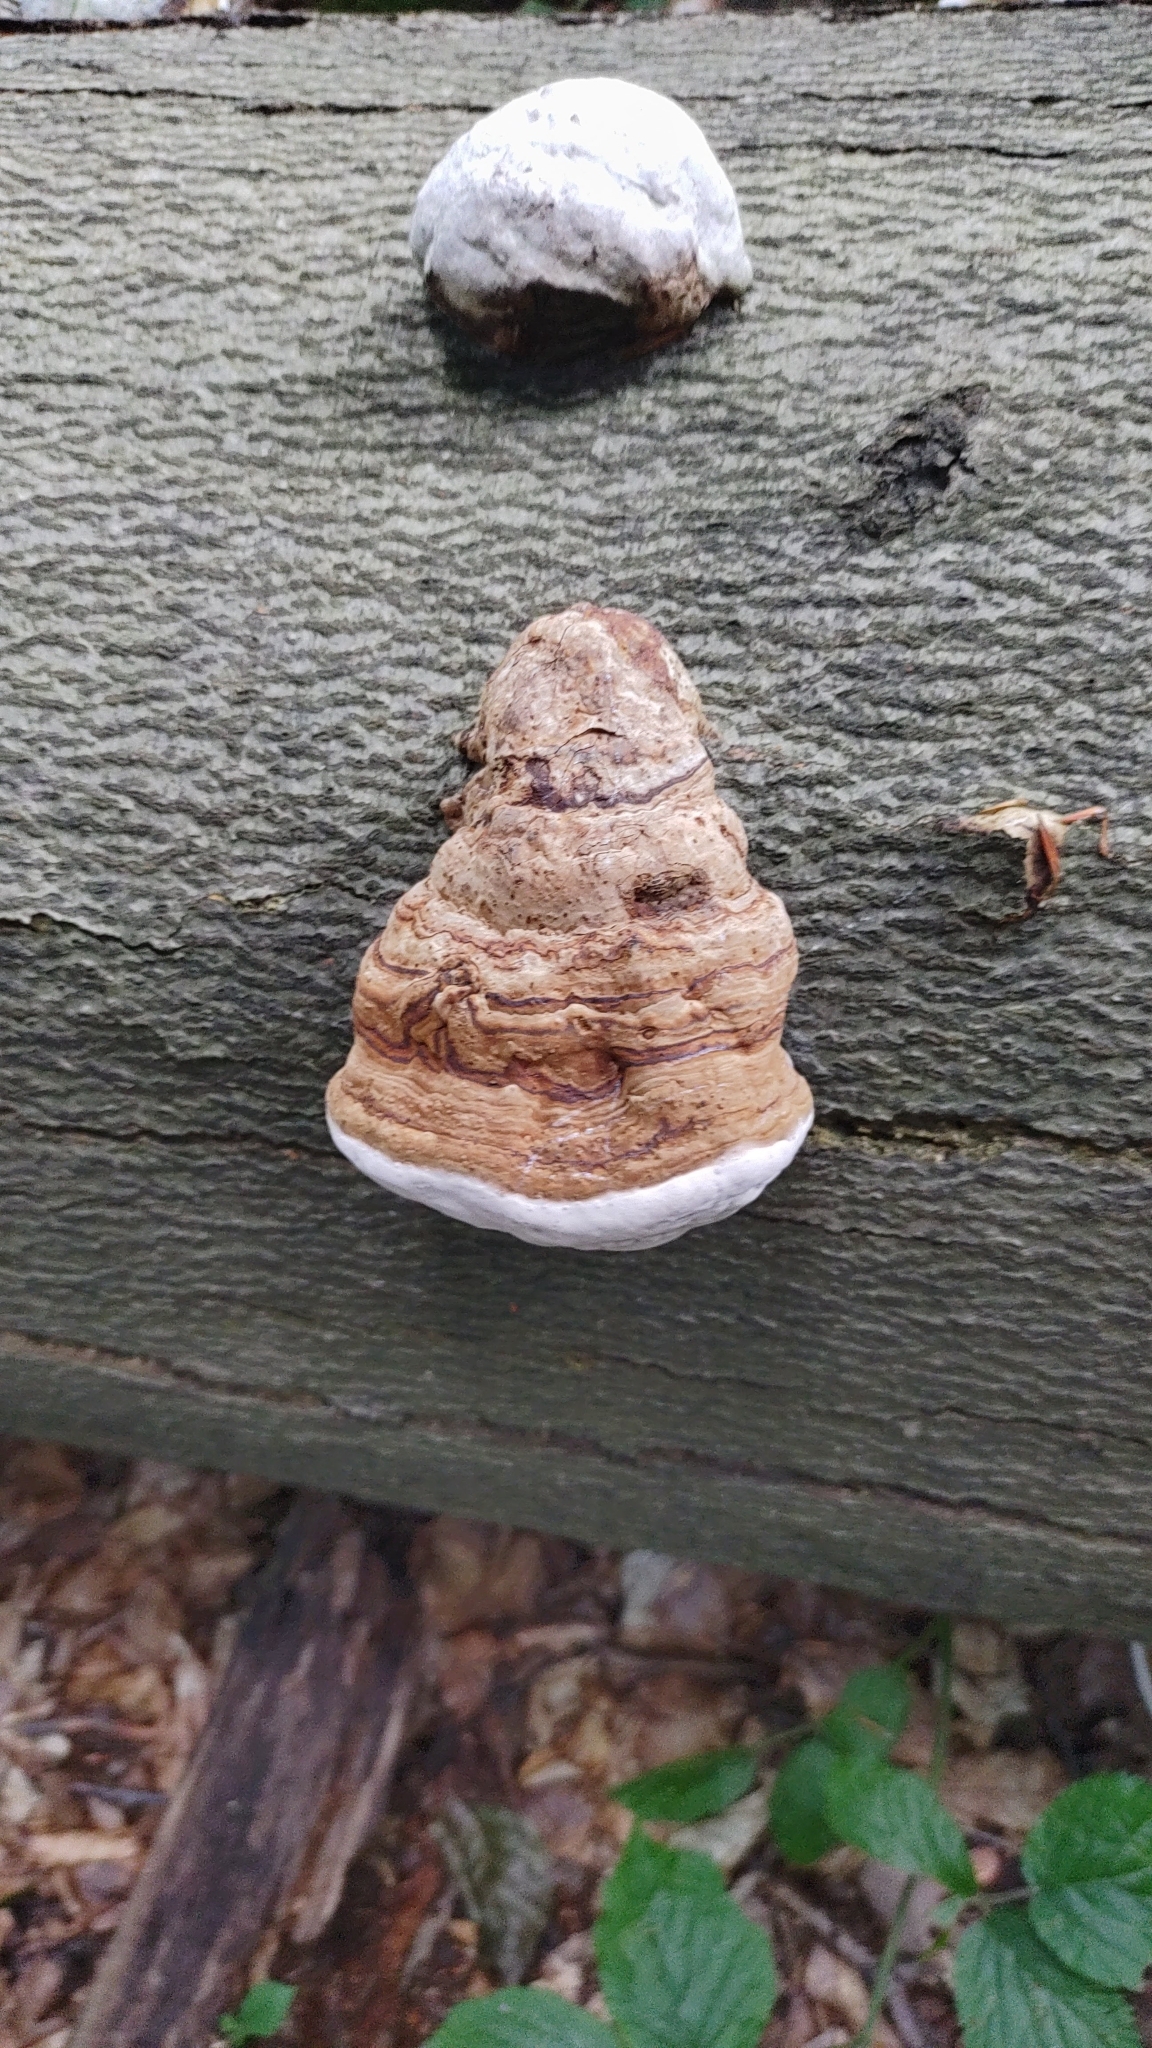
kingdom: Fungi
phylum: Basidiomycota
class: Agaricomycetes
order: Polyporales
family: Polyporaceae
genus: Fomes
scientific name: Fomes fomentarius
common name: Hoof fungus
